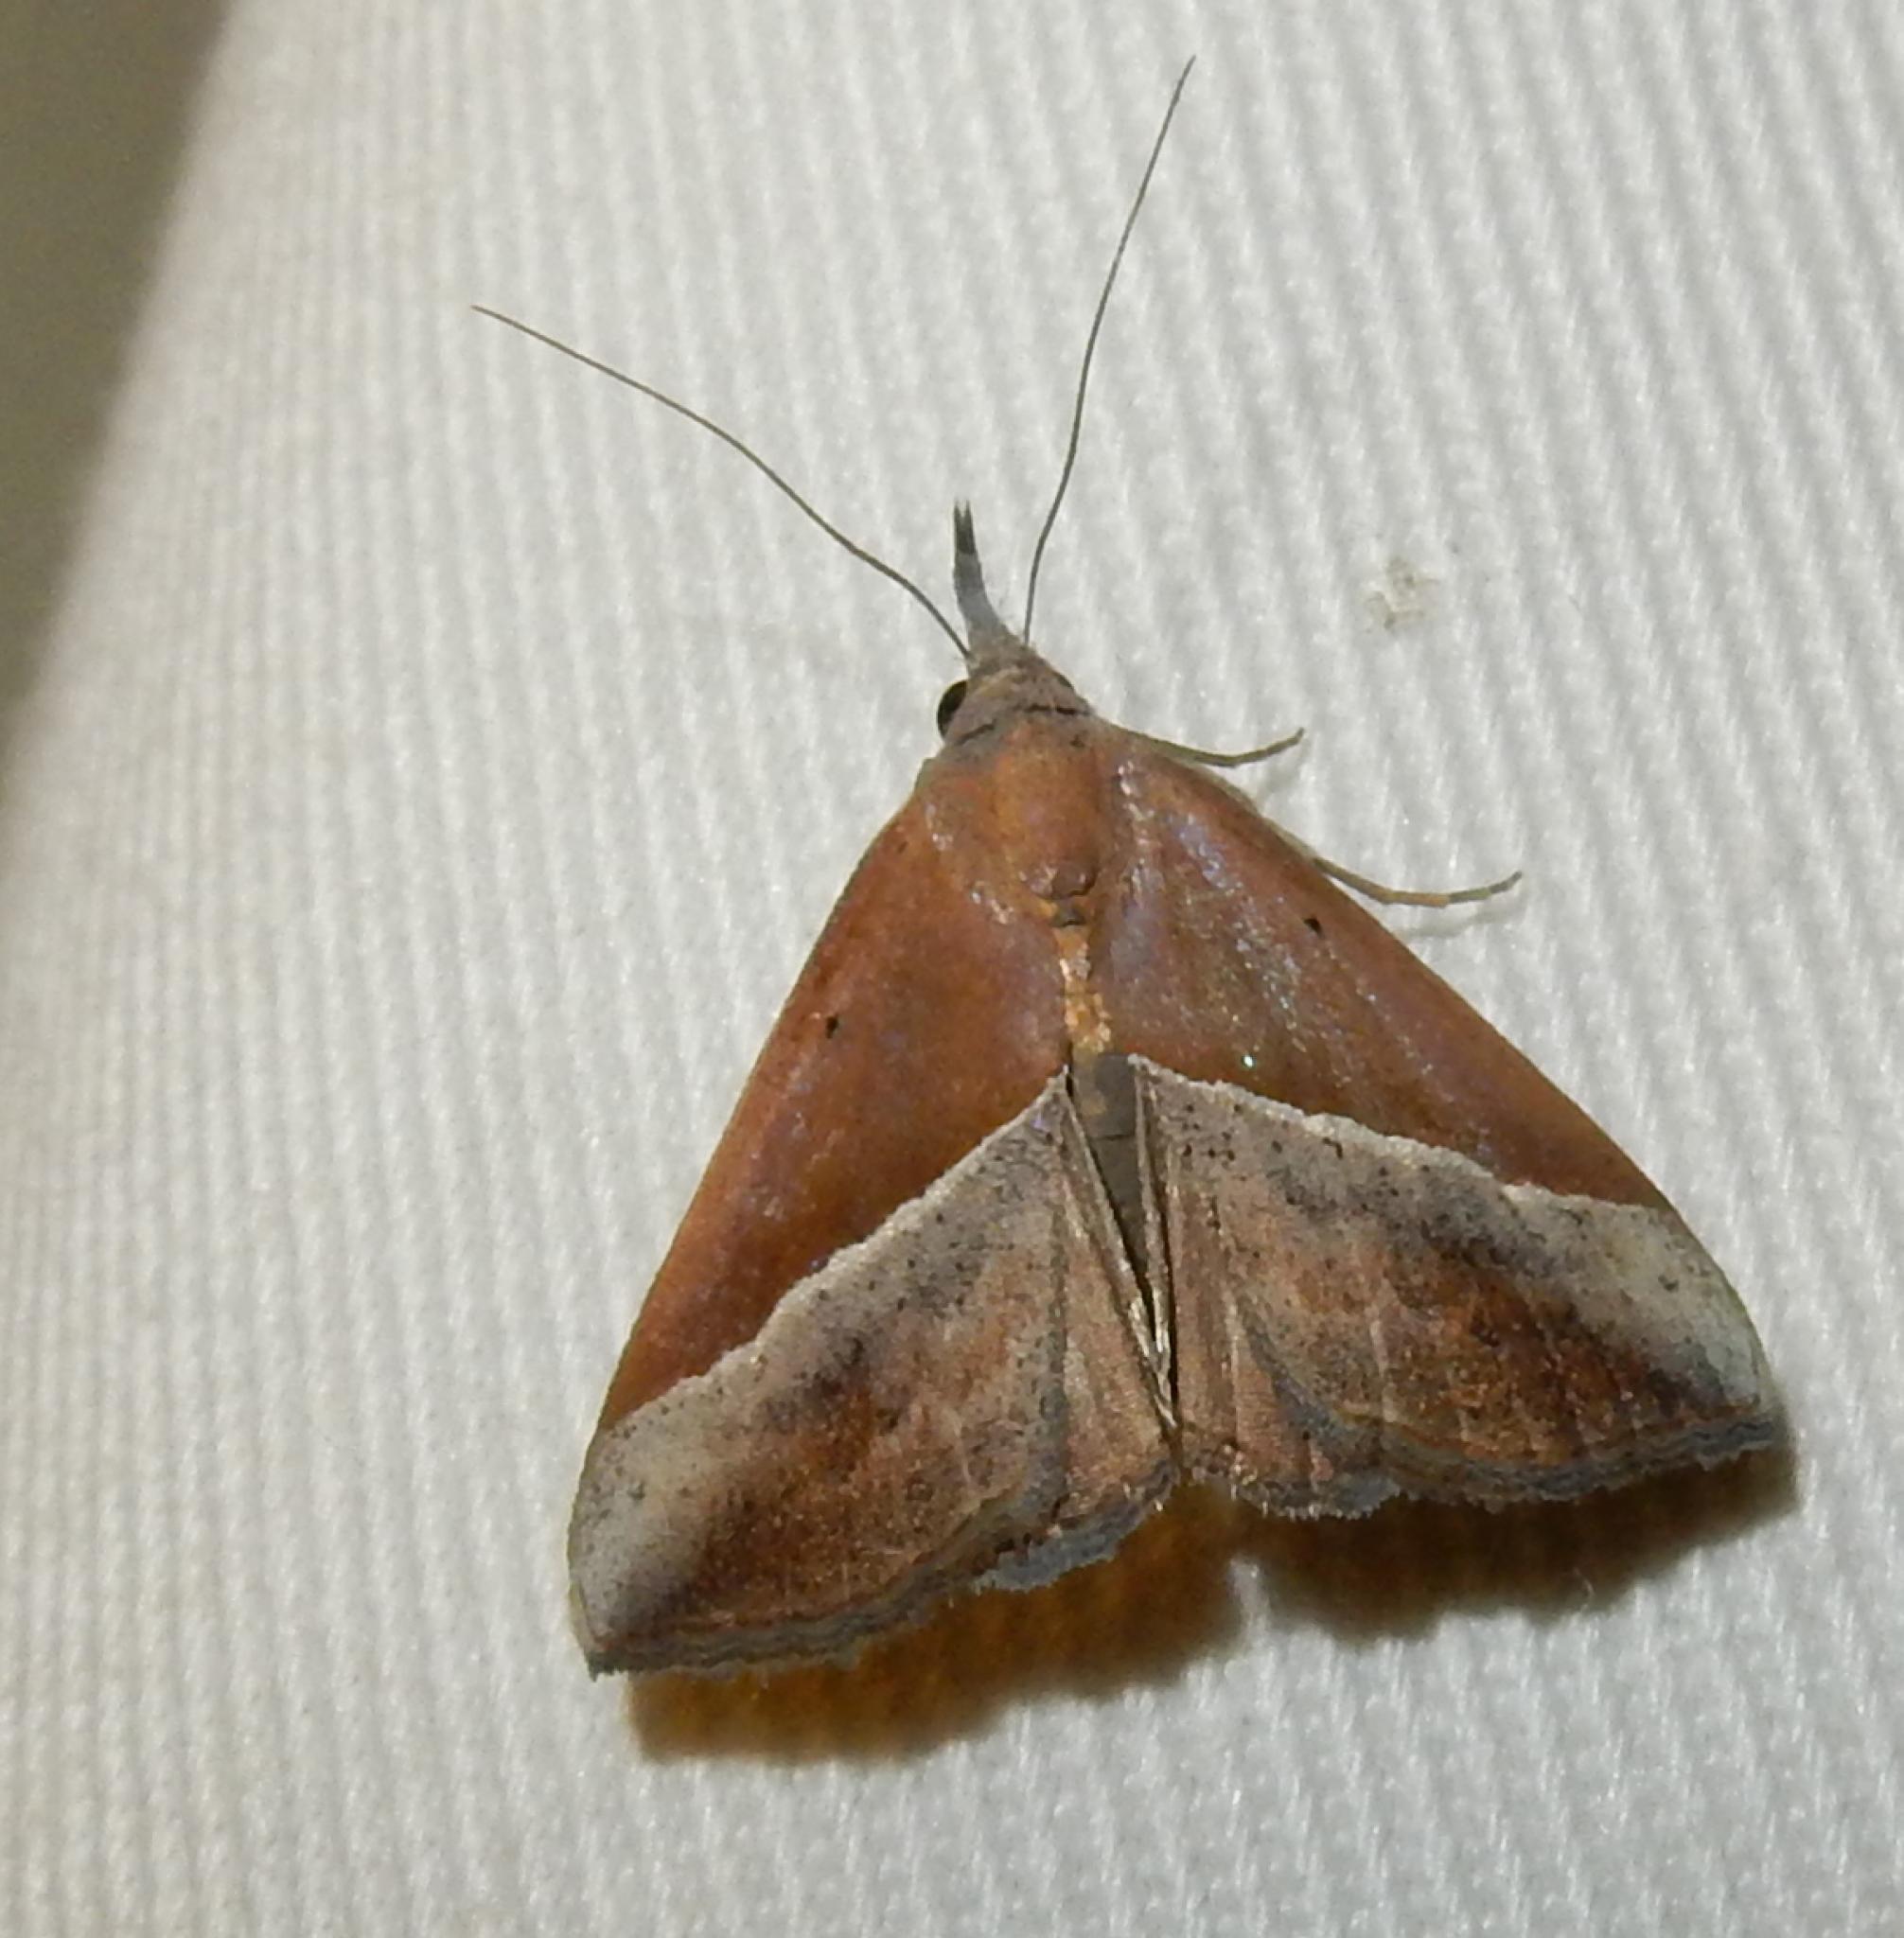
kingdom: Animalia
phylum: Arthropoda
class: Insecta
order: Lepidoptera
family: Erebidae
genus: Hypena
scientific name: Hypena lividalis
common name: Chevron snout
